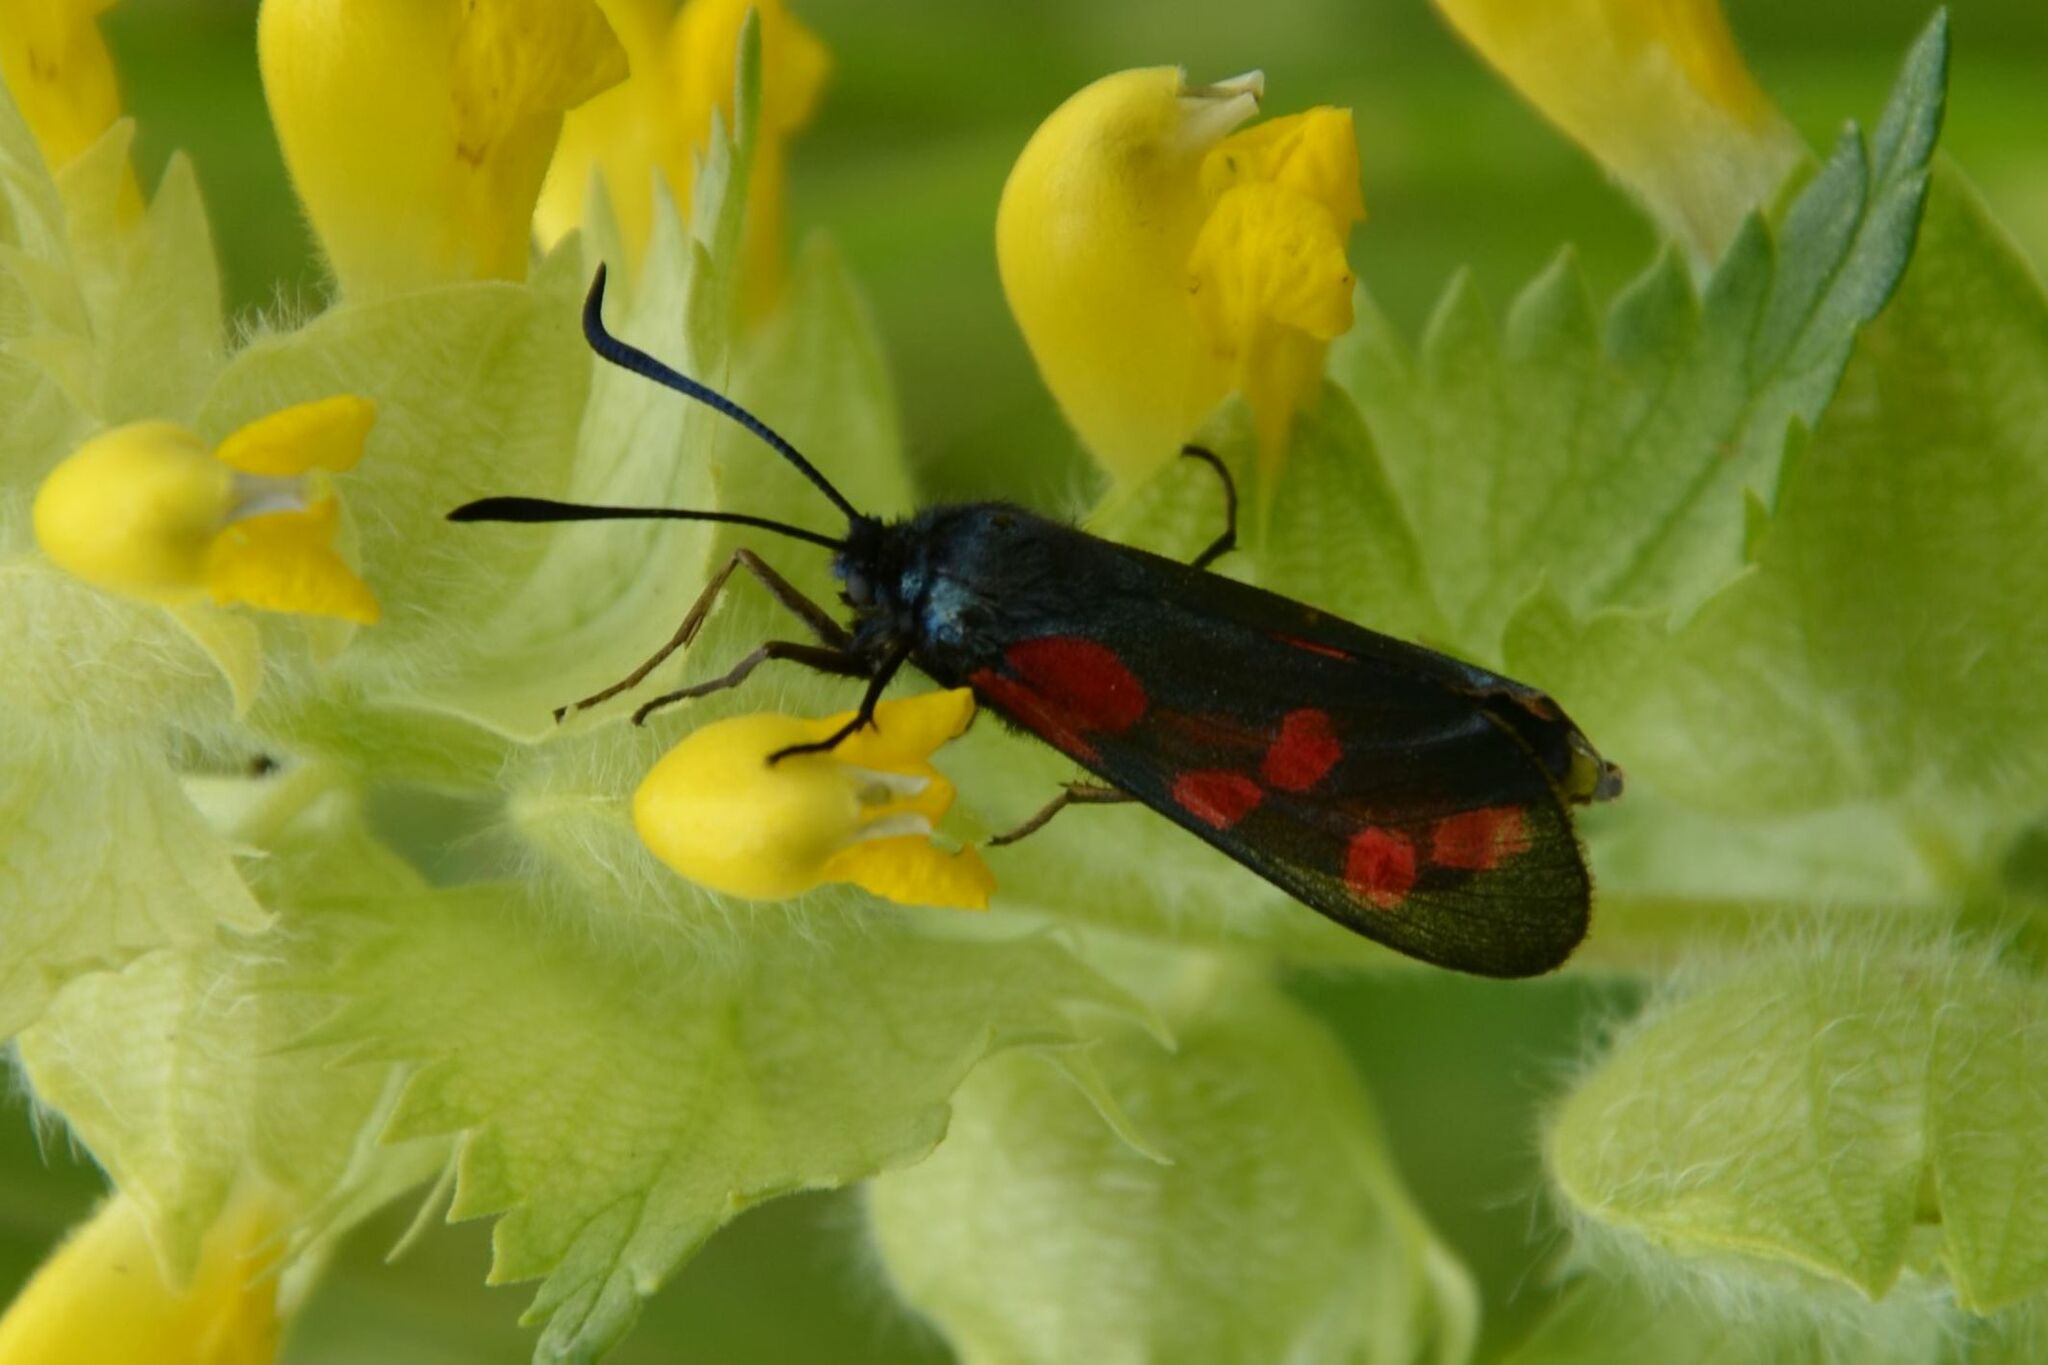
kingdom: Animalia
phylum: Arthropoda
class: Insecta
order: Lepidoptera
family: Zygaenidae
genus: Zygaena
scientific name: Zygaena filipendulae
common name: Six-spot burnet
